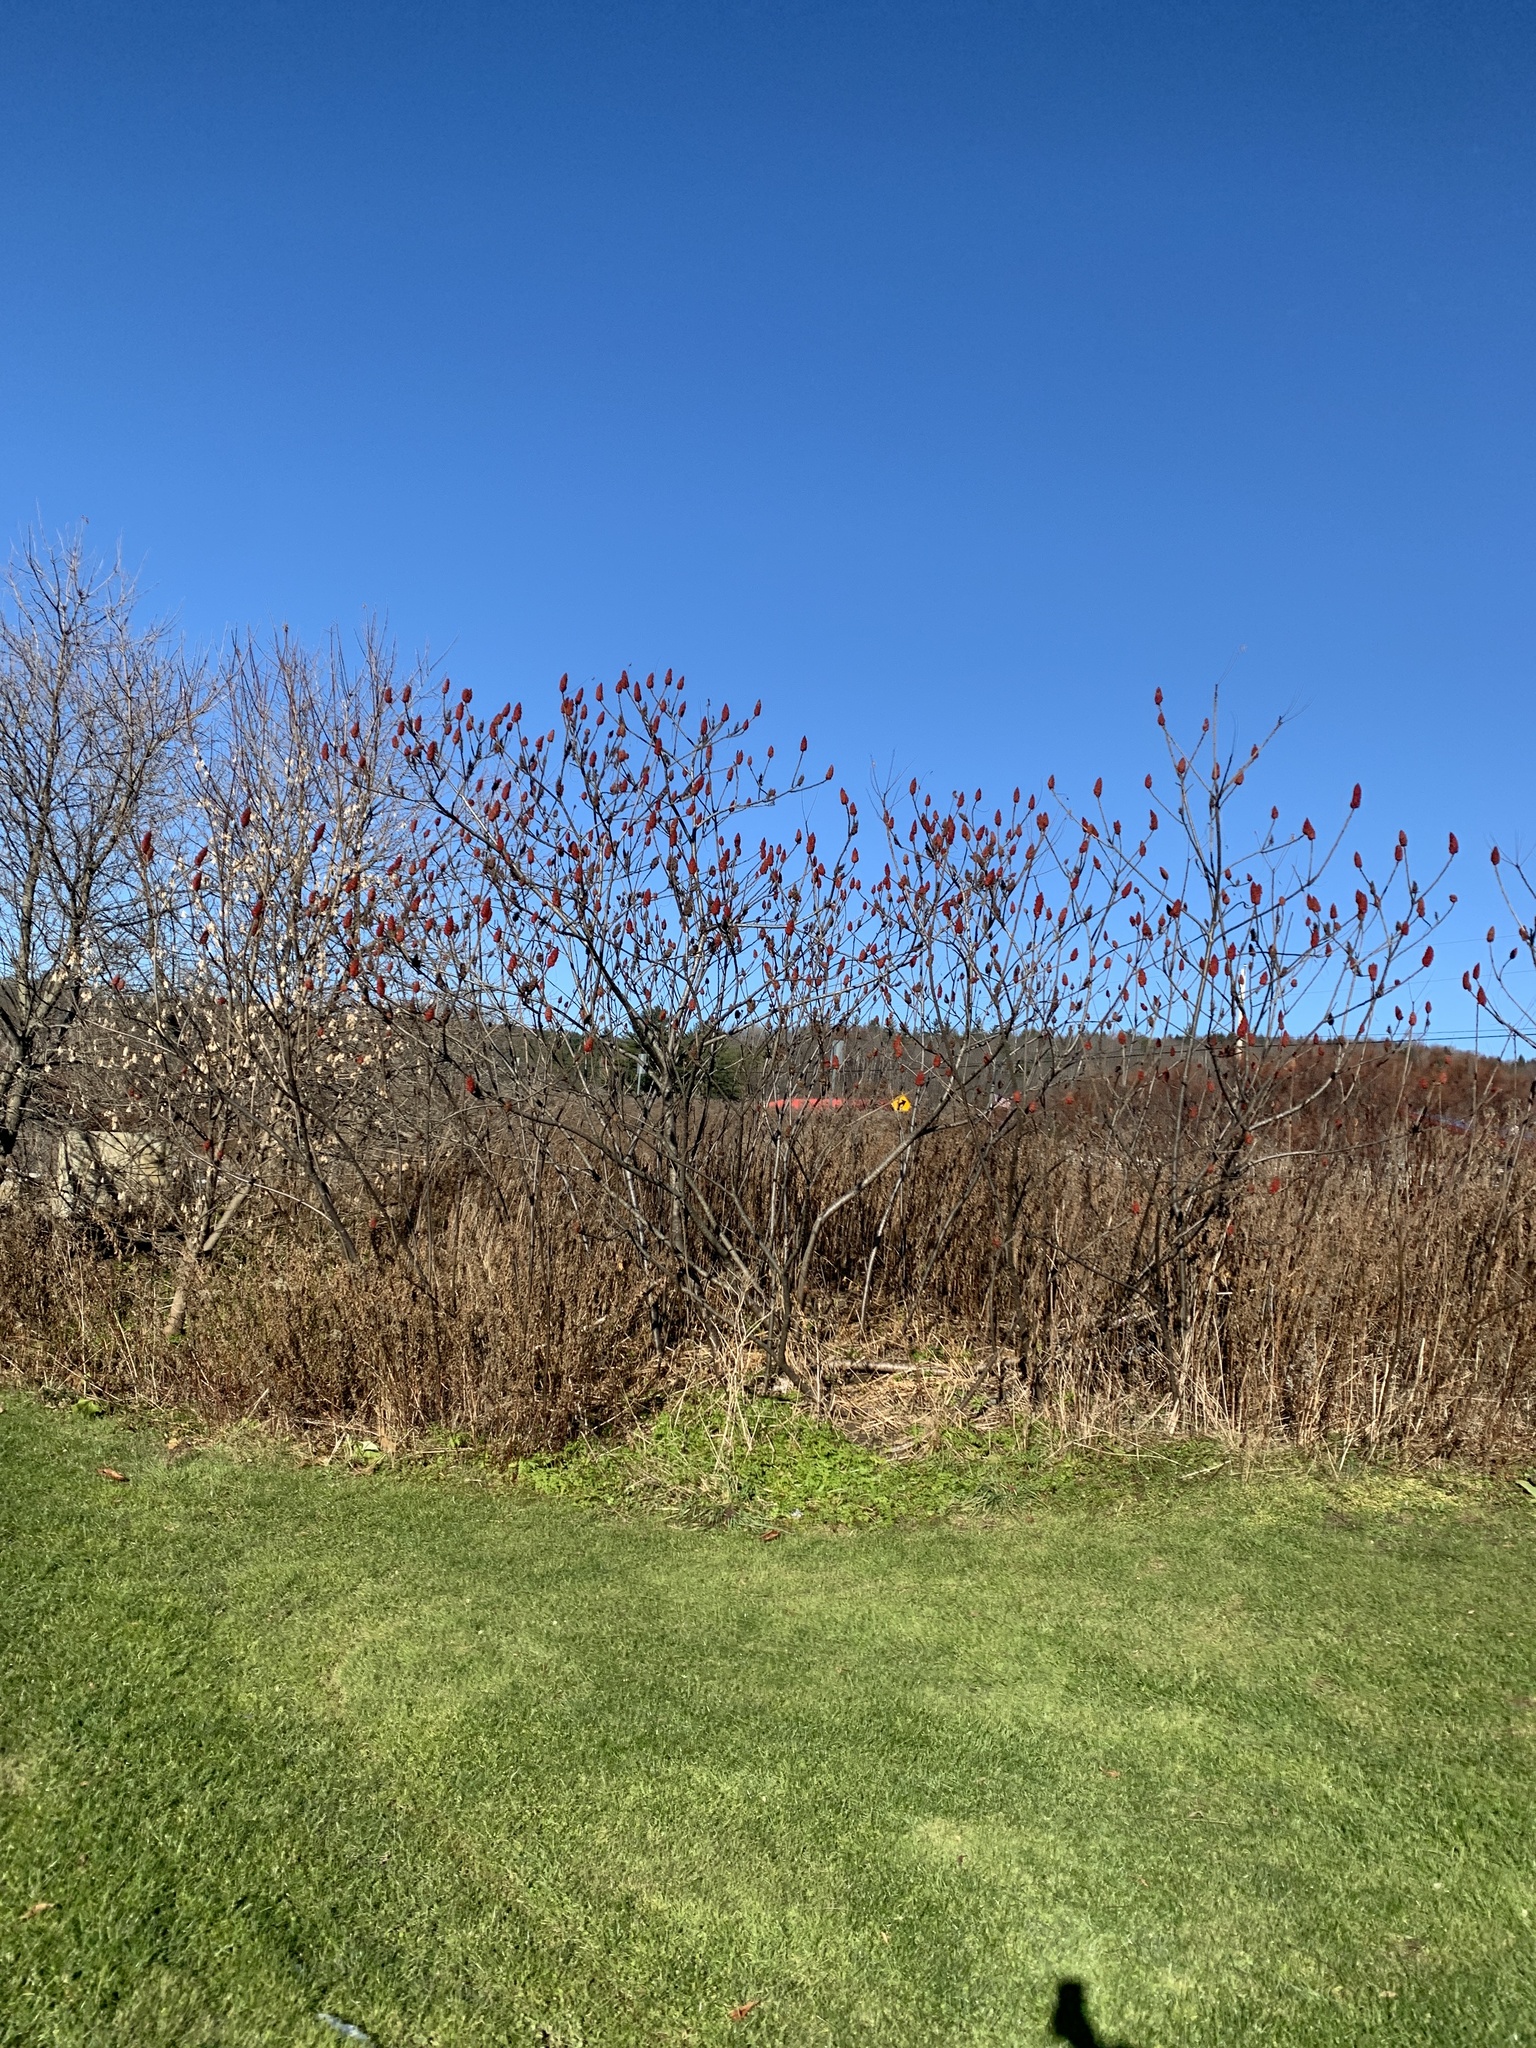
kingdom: Plantae
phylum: Tracheophyta
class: Magnoliopsida
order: Sapindales
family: Anacardiaceae
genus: Rhus
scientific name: Rhus typhina
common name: Staghorn sumac
